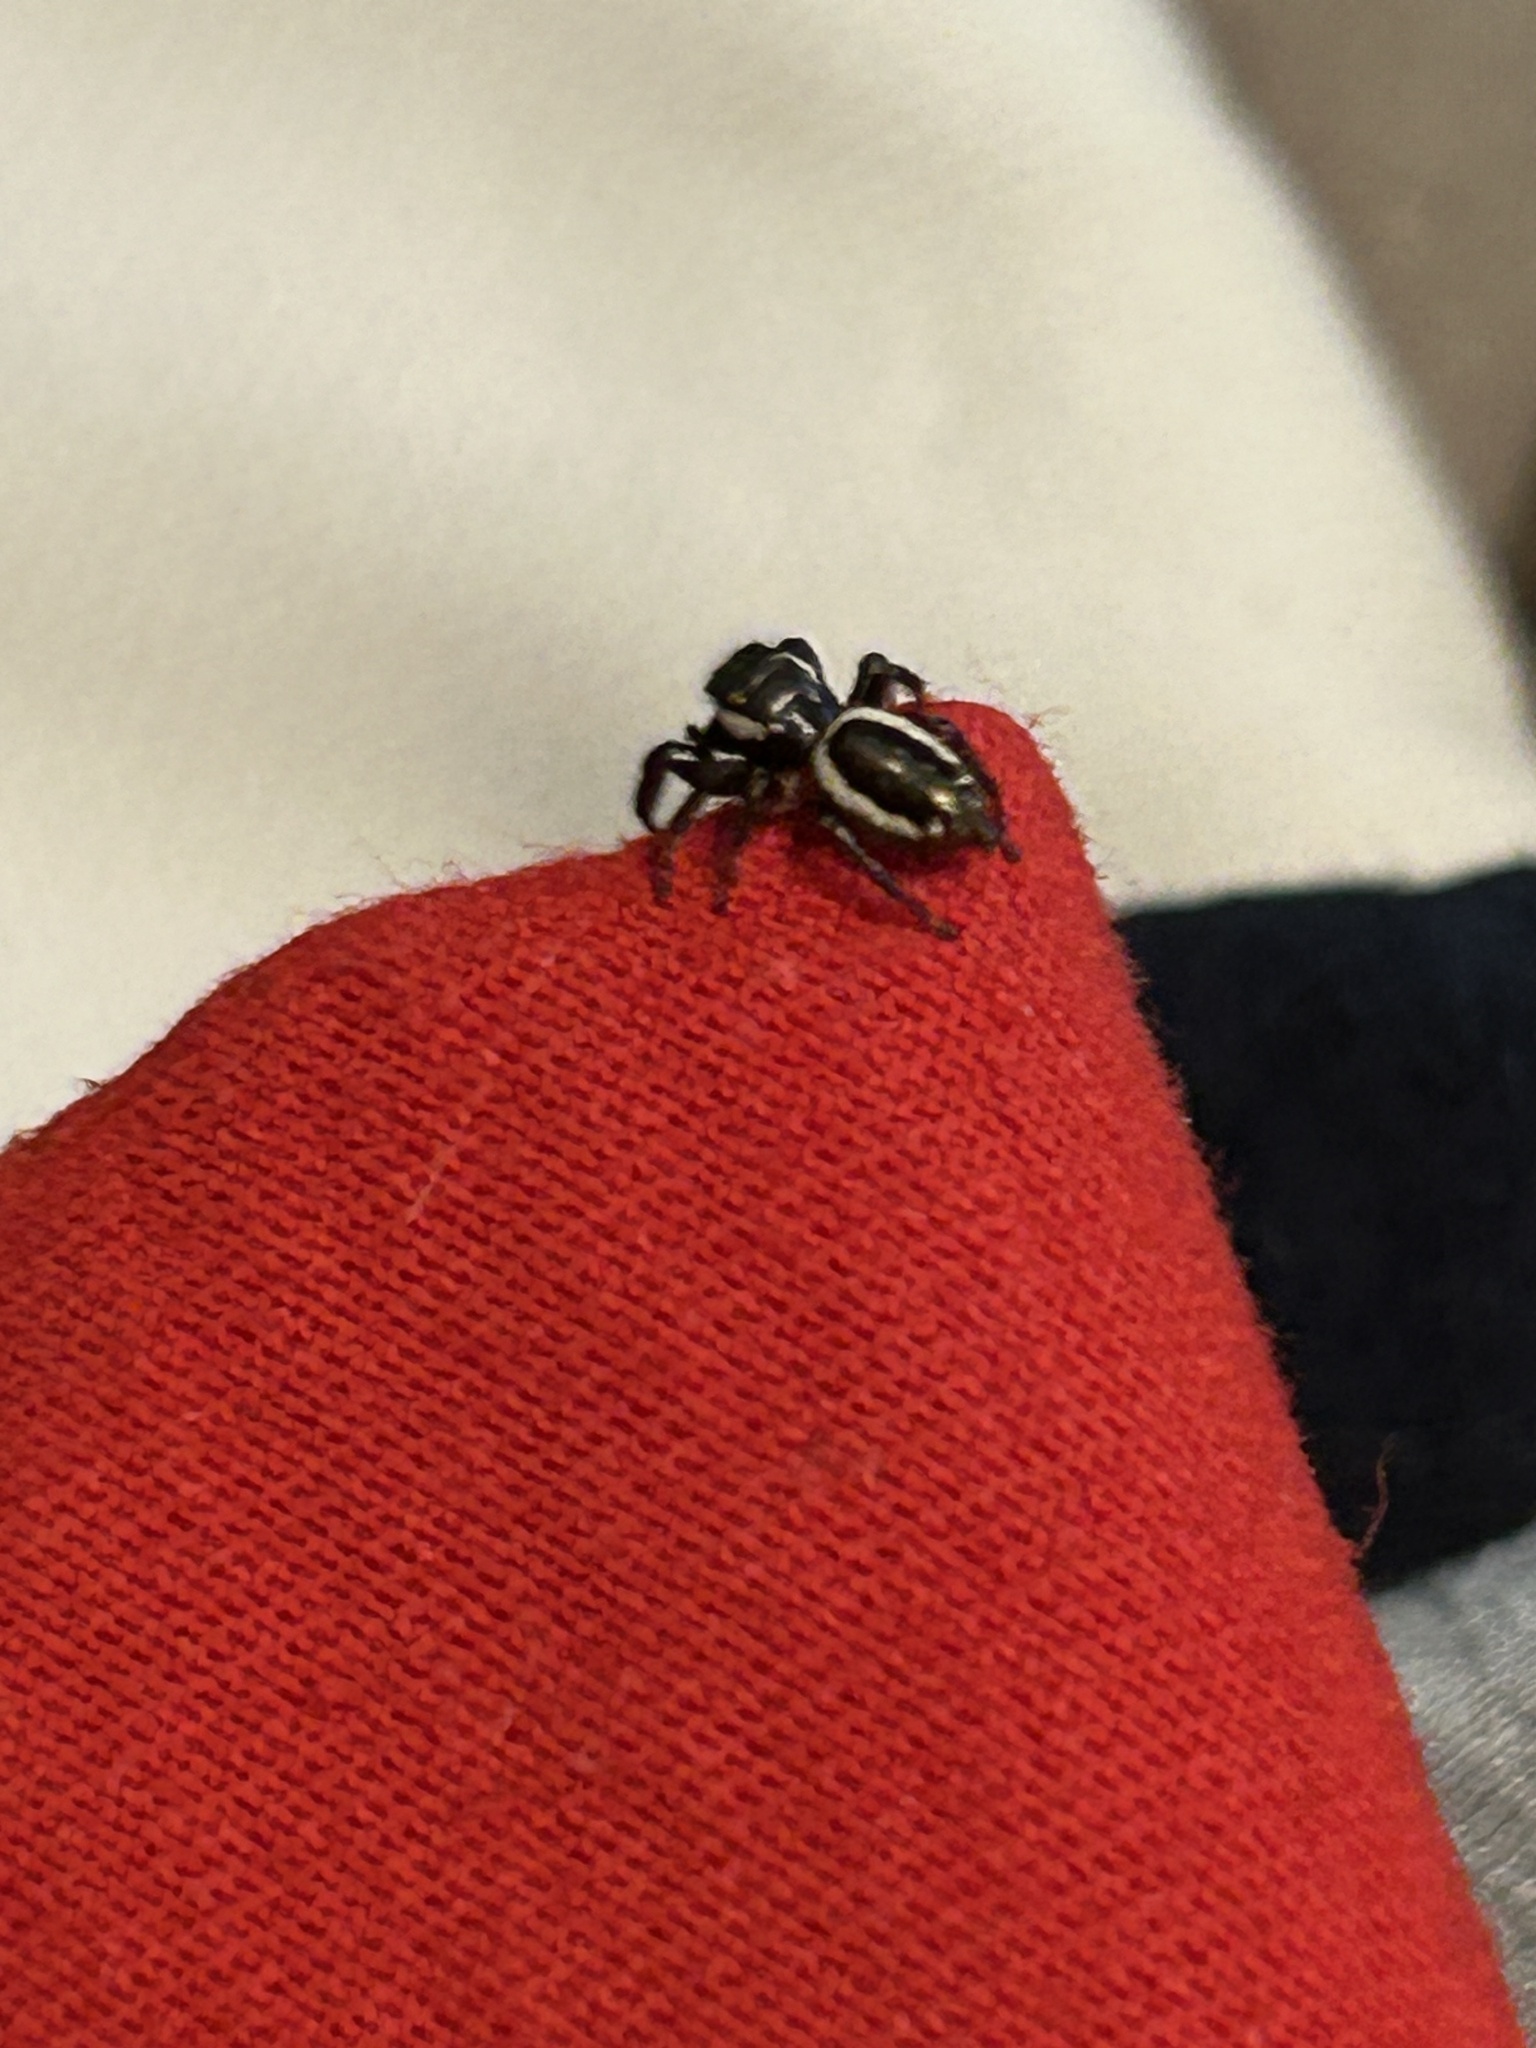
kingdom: Animalia
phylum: Arthropoda
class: Arachnida
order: Araneae
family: Salticidae
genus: Eris
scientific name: Eris militaris
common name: Bronze jumper
